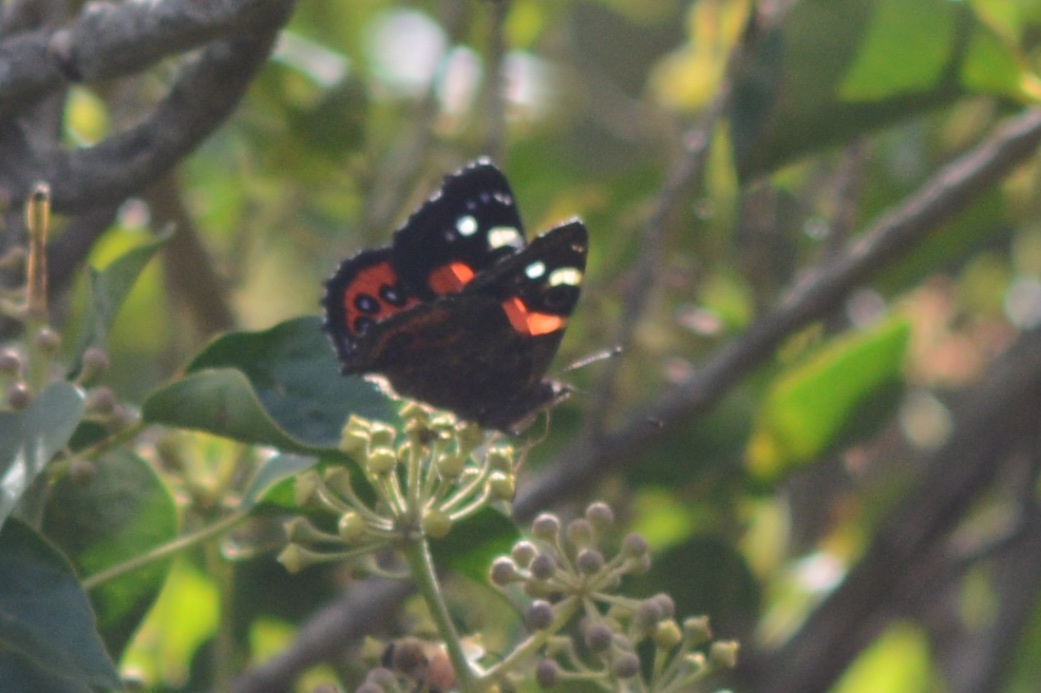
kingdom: Animalia
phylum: Arthropoda
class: Insecta
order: Lepidoptera
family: Nymphalidae
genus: Vanessa
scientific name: Vanessa gonerilla
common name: New zealand red admiral
